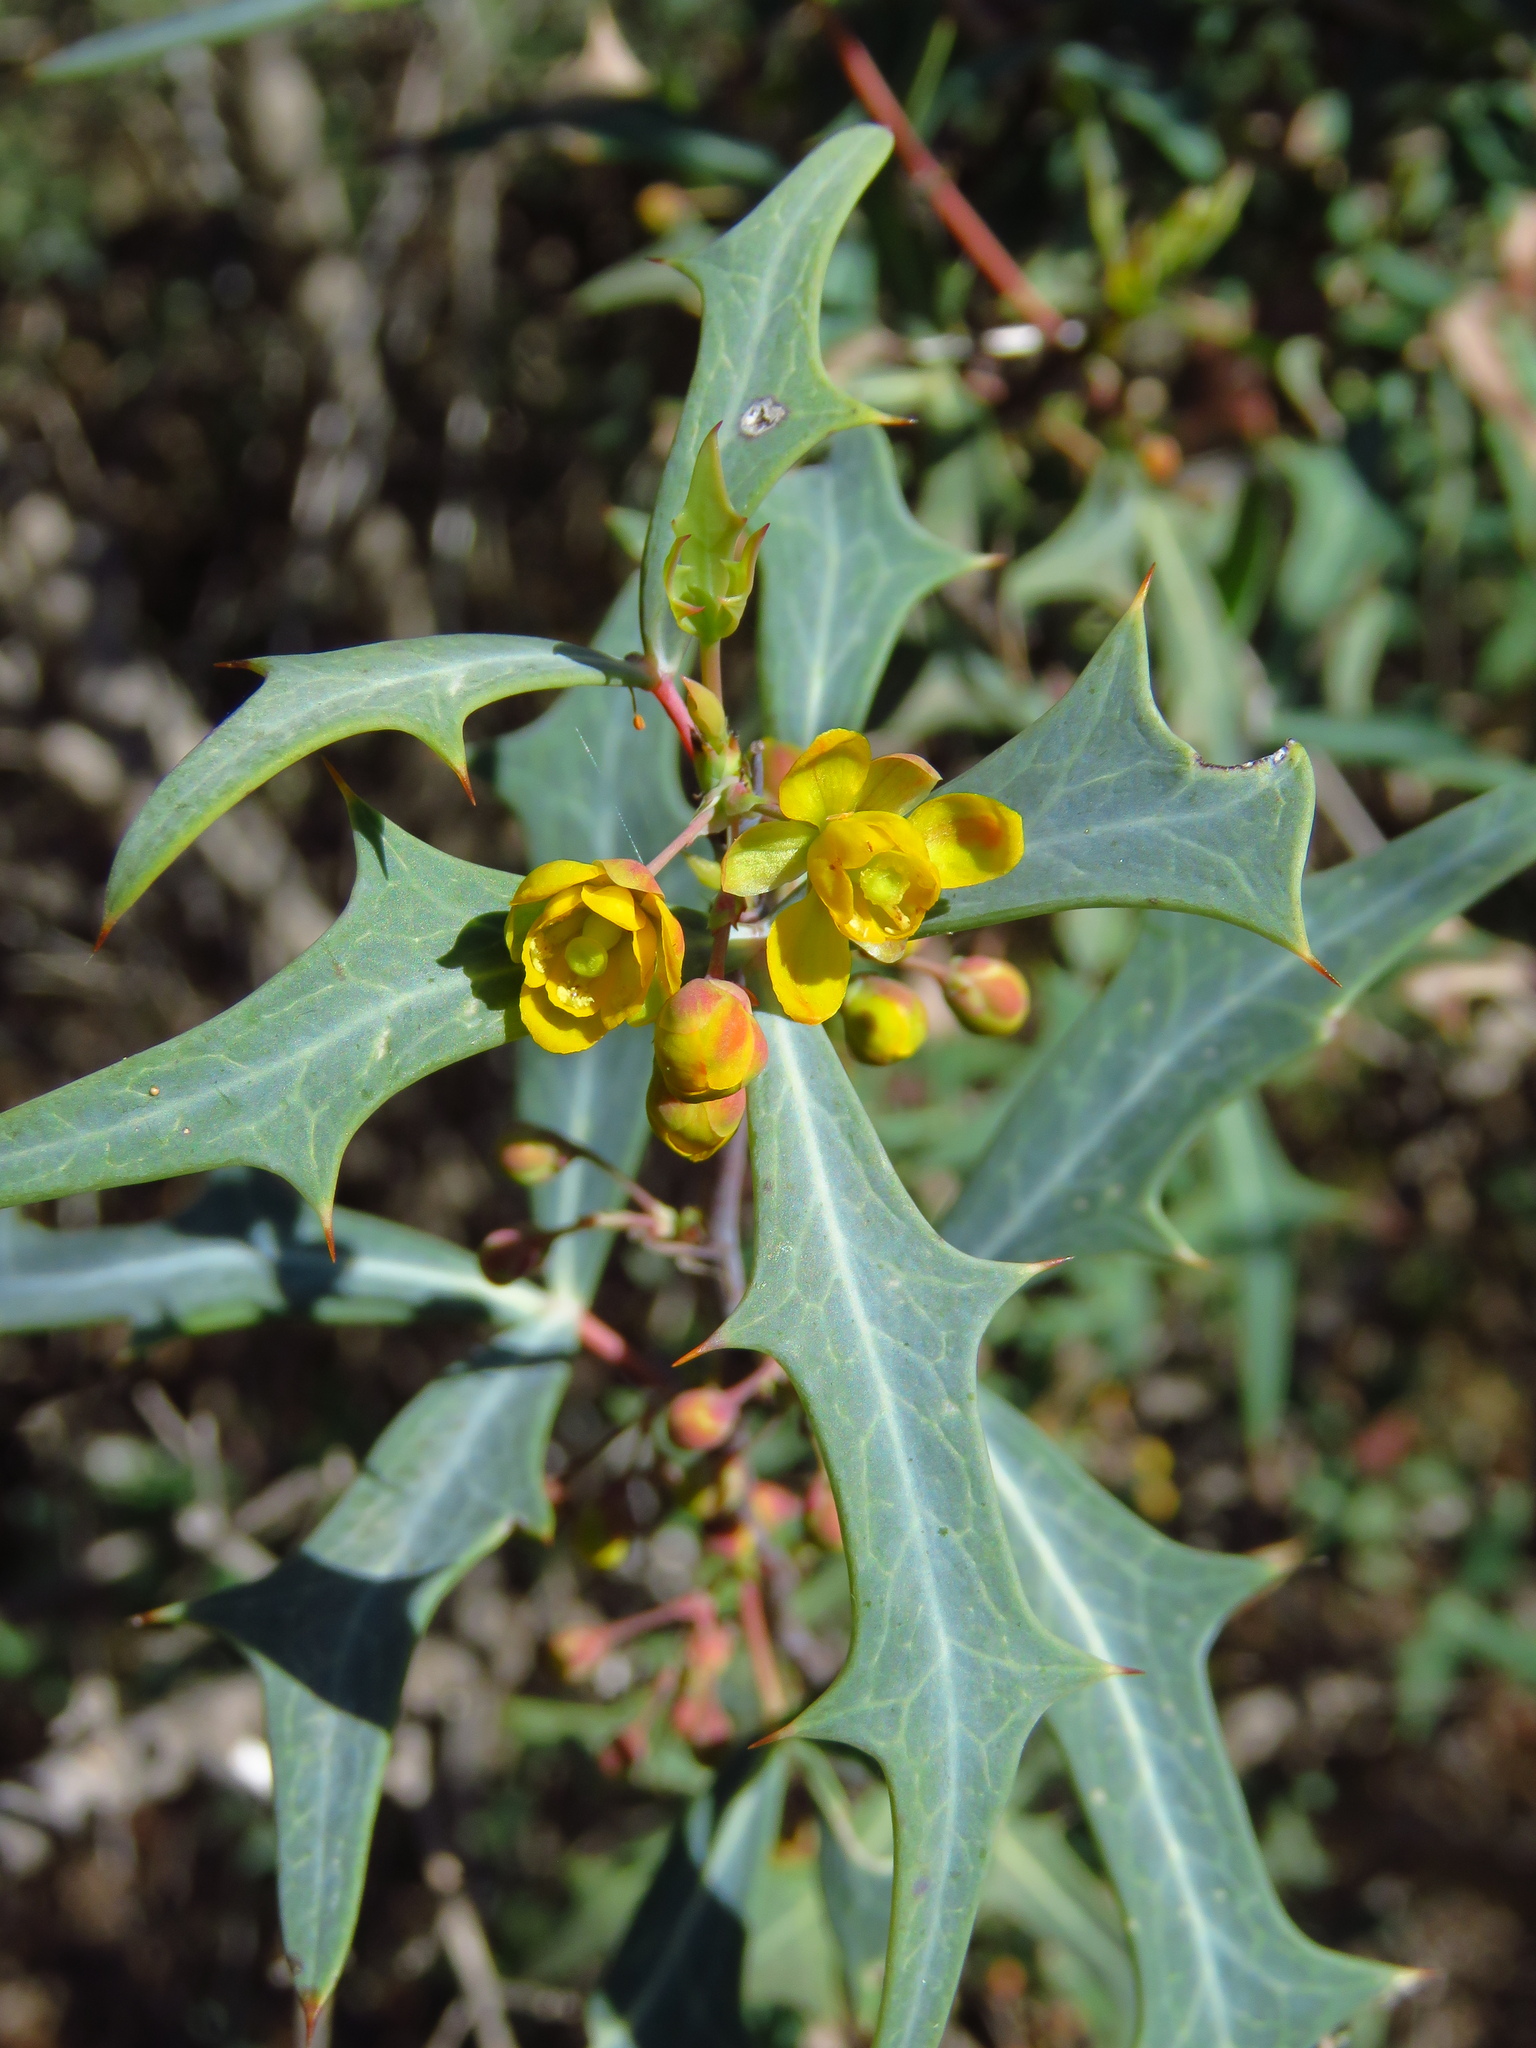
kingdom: Plantae
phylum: Tracheophyta
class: Magnoliopsida
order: Ranunculales
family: Berberidaceae
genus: Alloberberis
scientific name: Alloberberis trifoliolata
